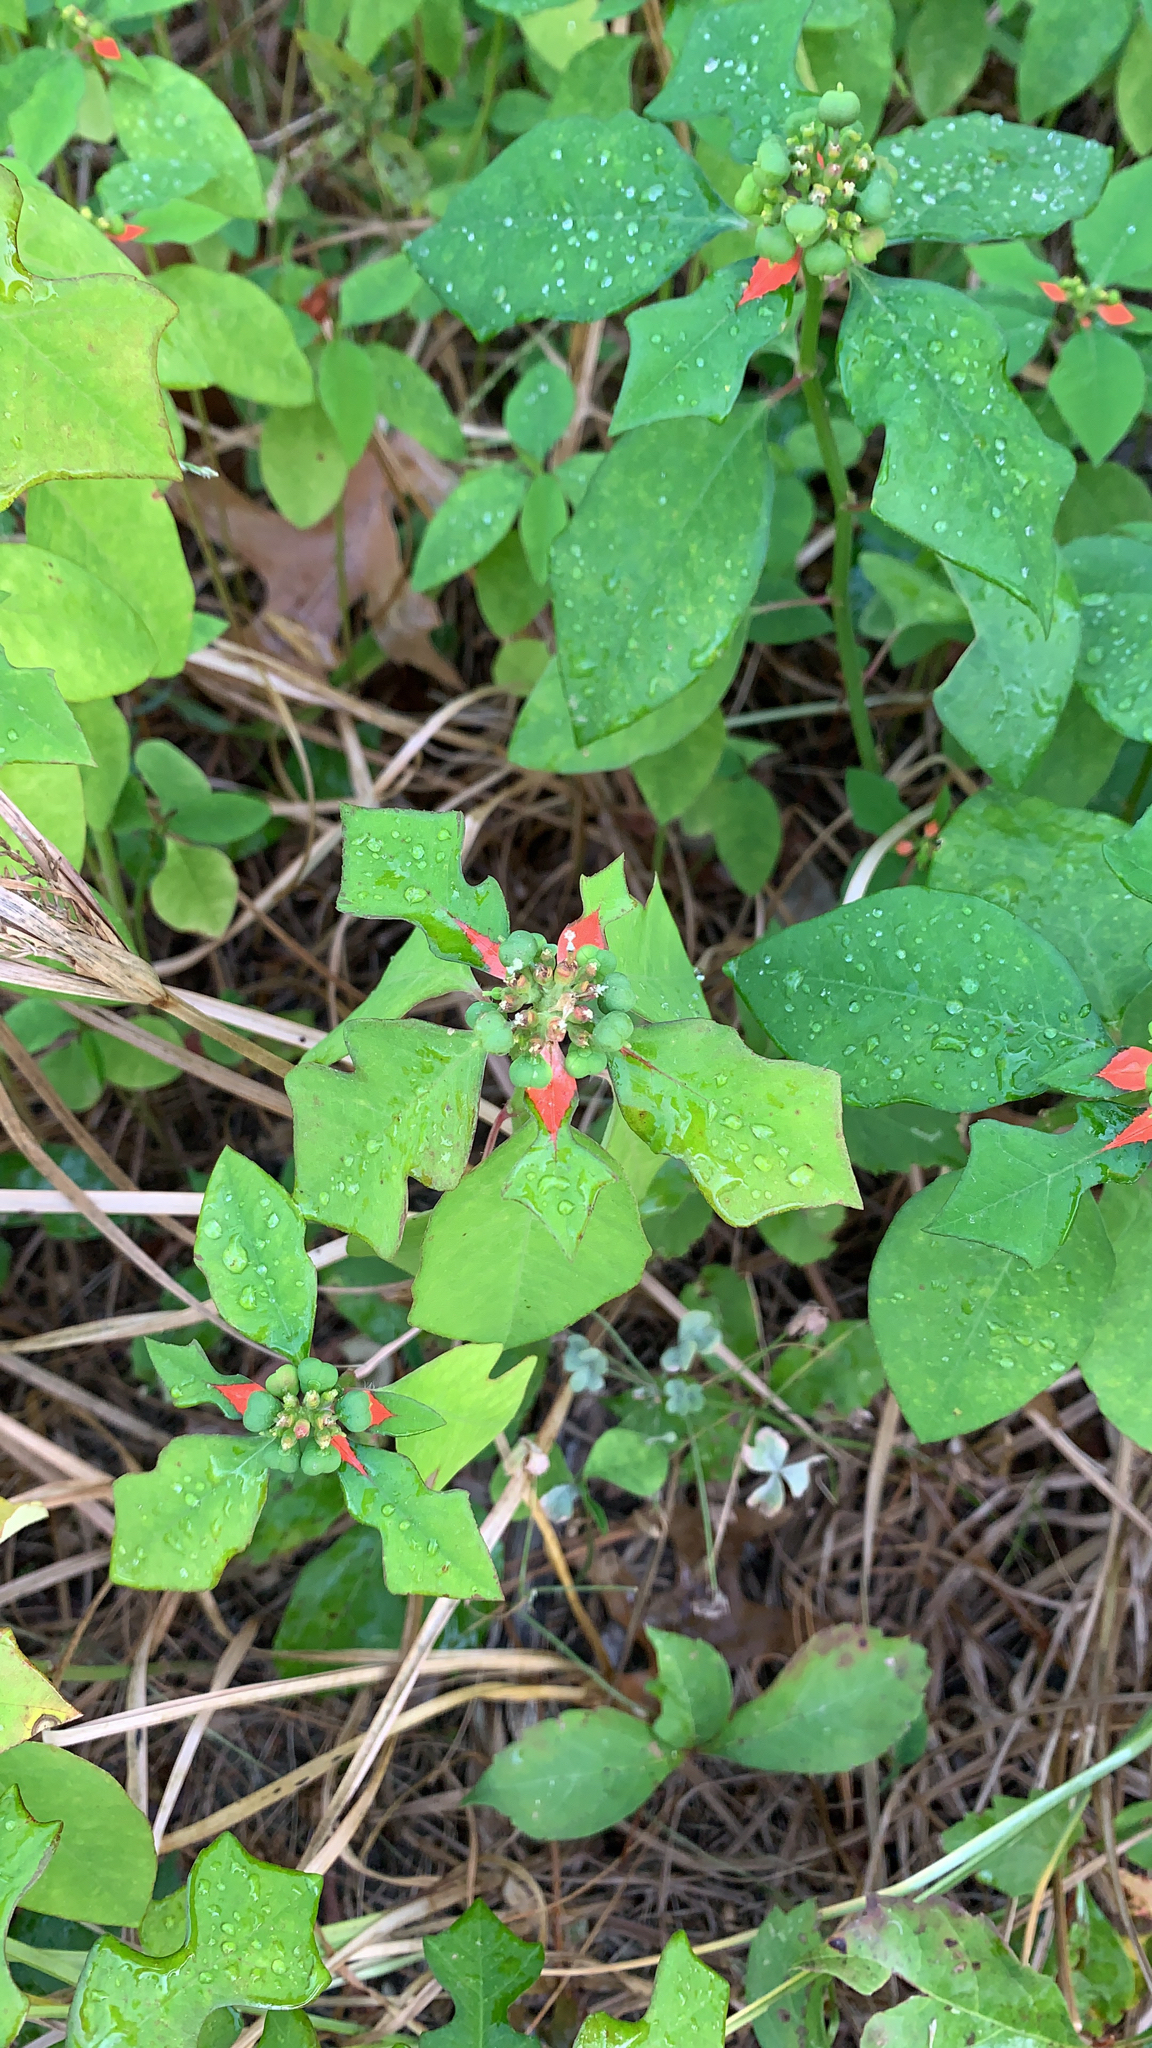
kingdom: Plantae
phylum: Tracheophyta
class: Magnoliopsida
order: Malpighiales
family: Euphorbiaceae
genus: Euphorbia
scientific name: Euphorbia heterophylla
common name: Mexican fireplant
